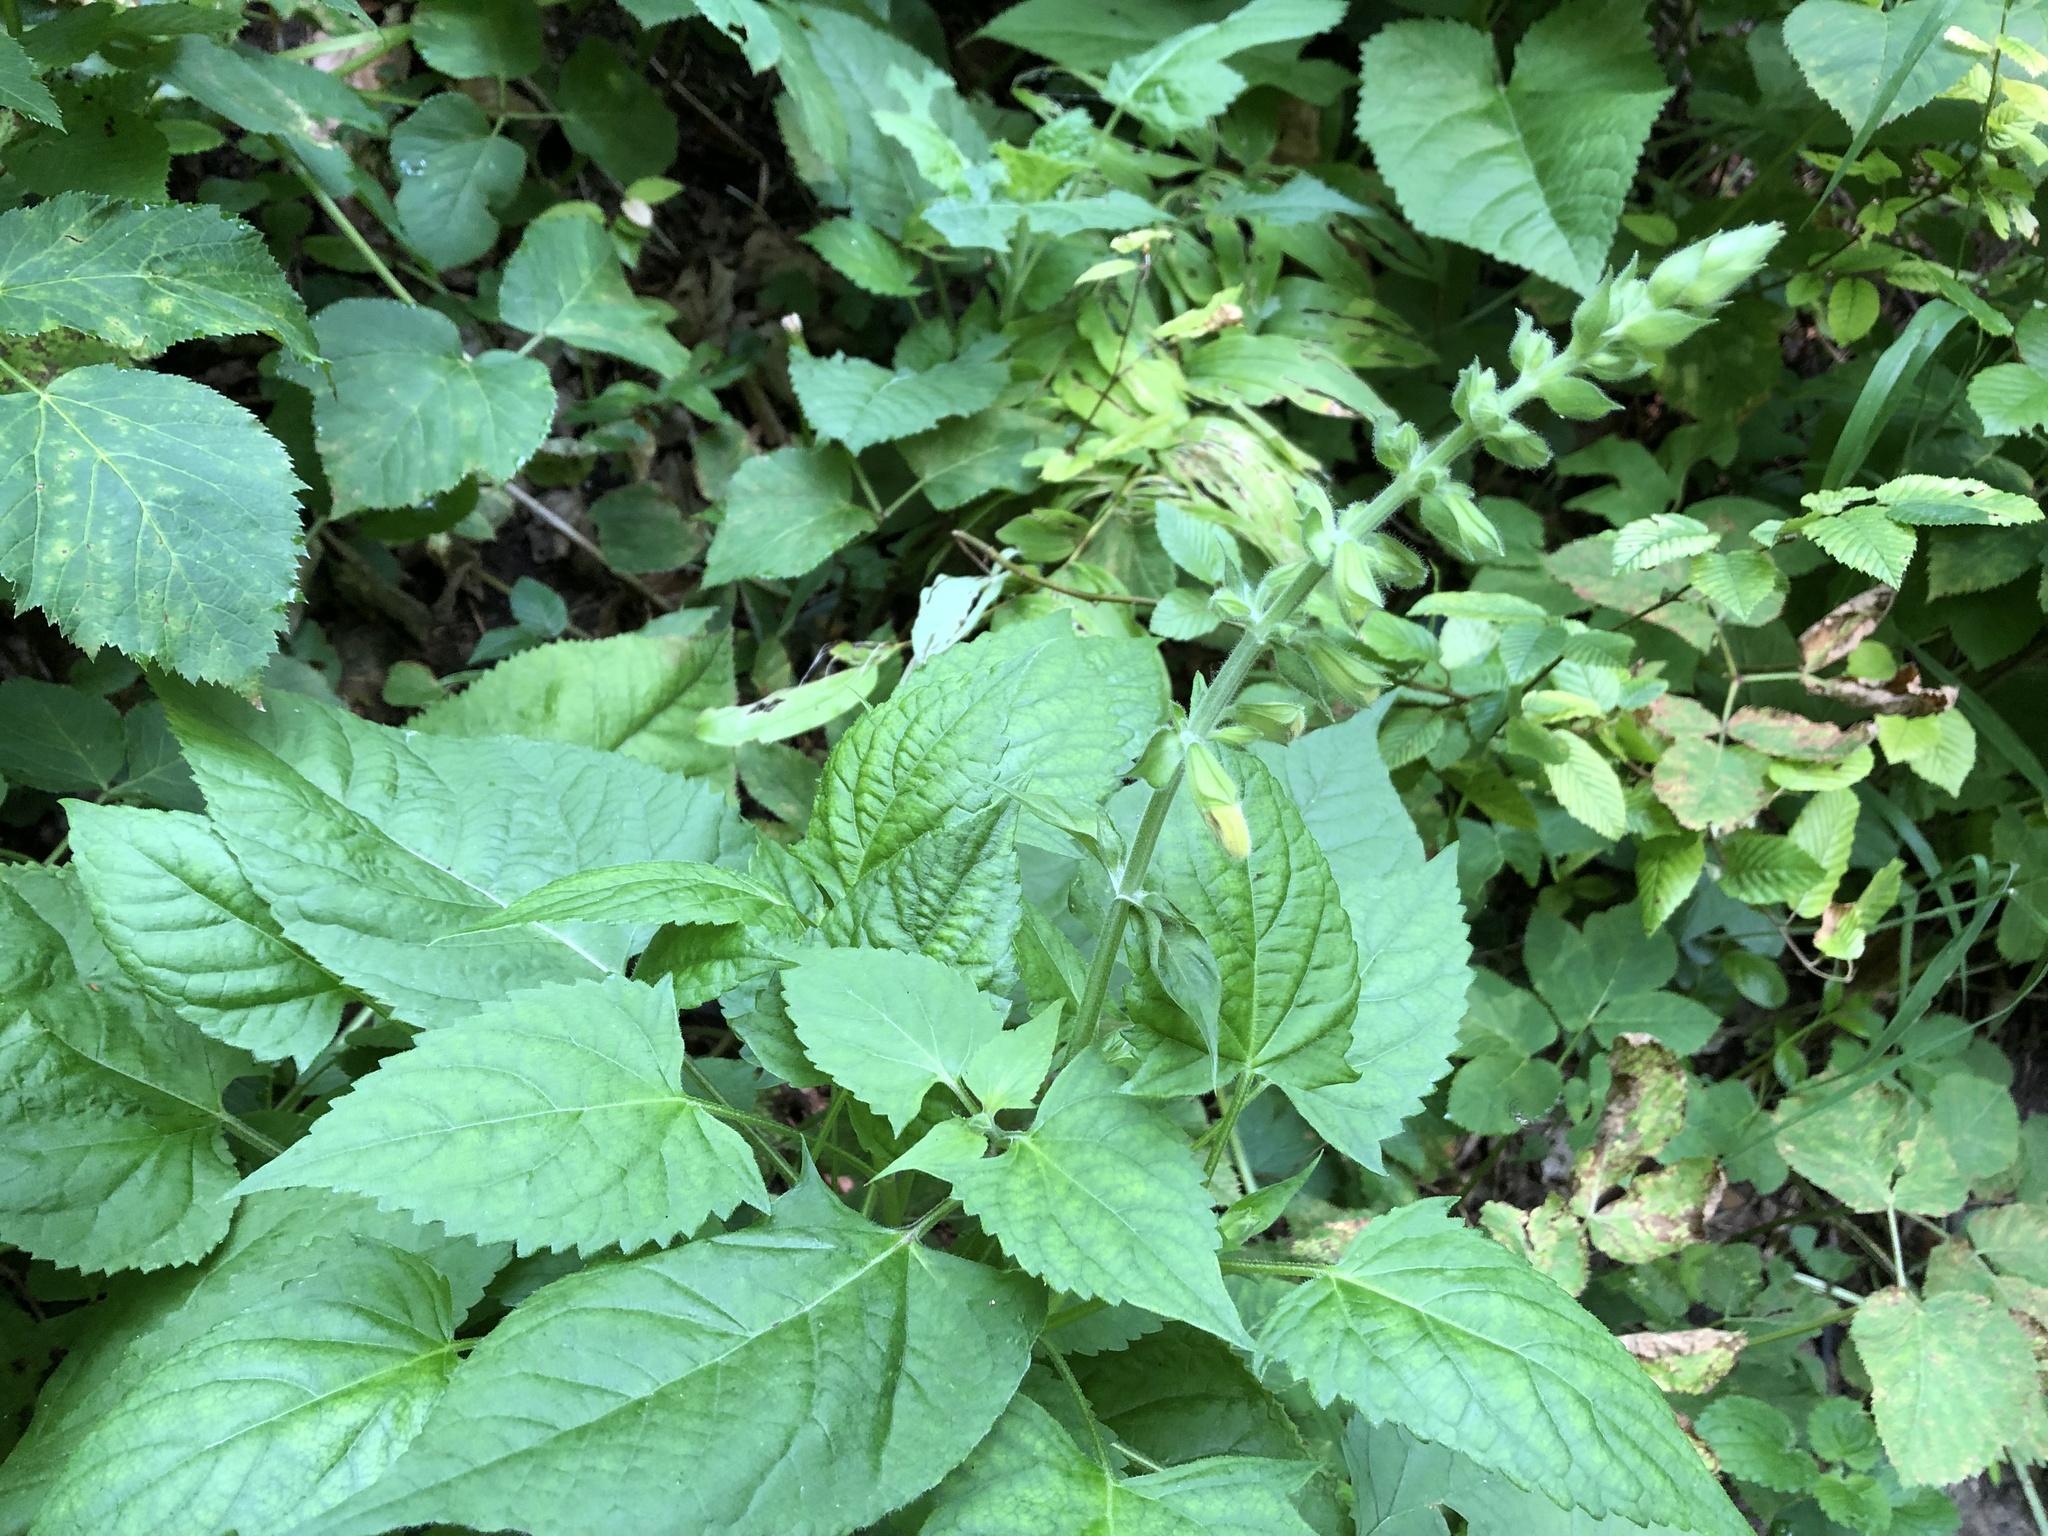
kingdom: Plantae
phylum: Tracheophyta
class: Magnoliopsida
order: Lamiales
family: Lamiaceae
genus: Salvia
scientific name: Salvia glutinosa
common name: Sticky clary
